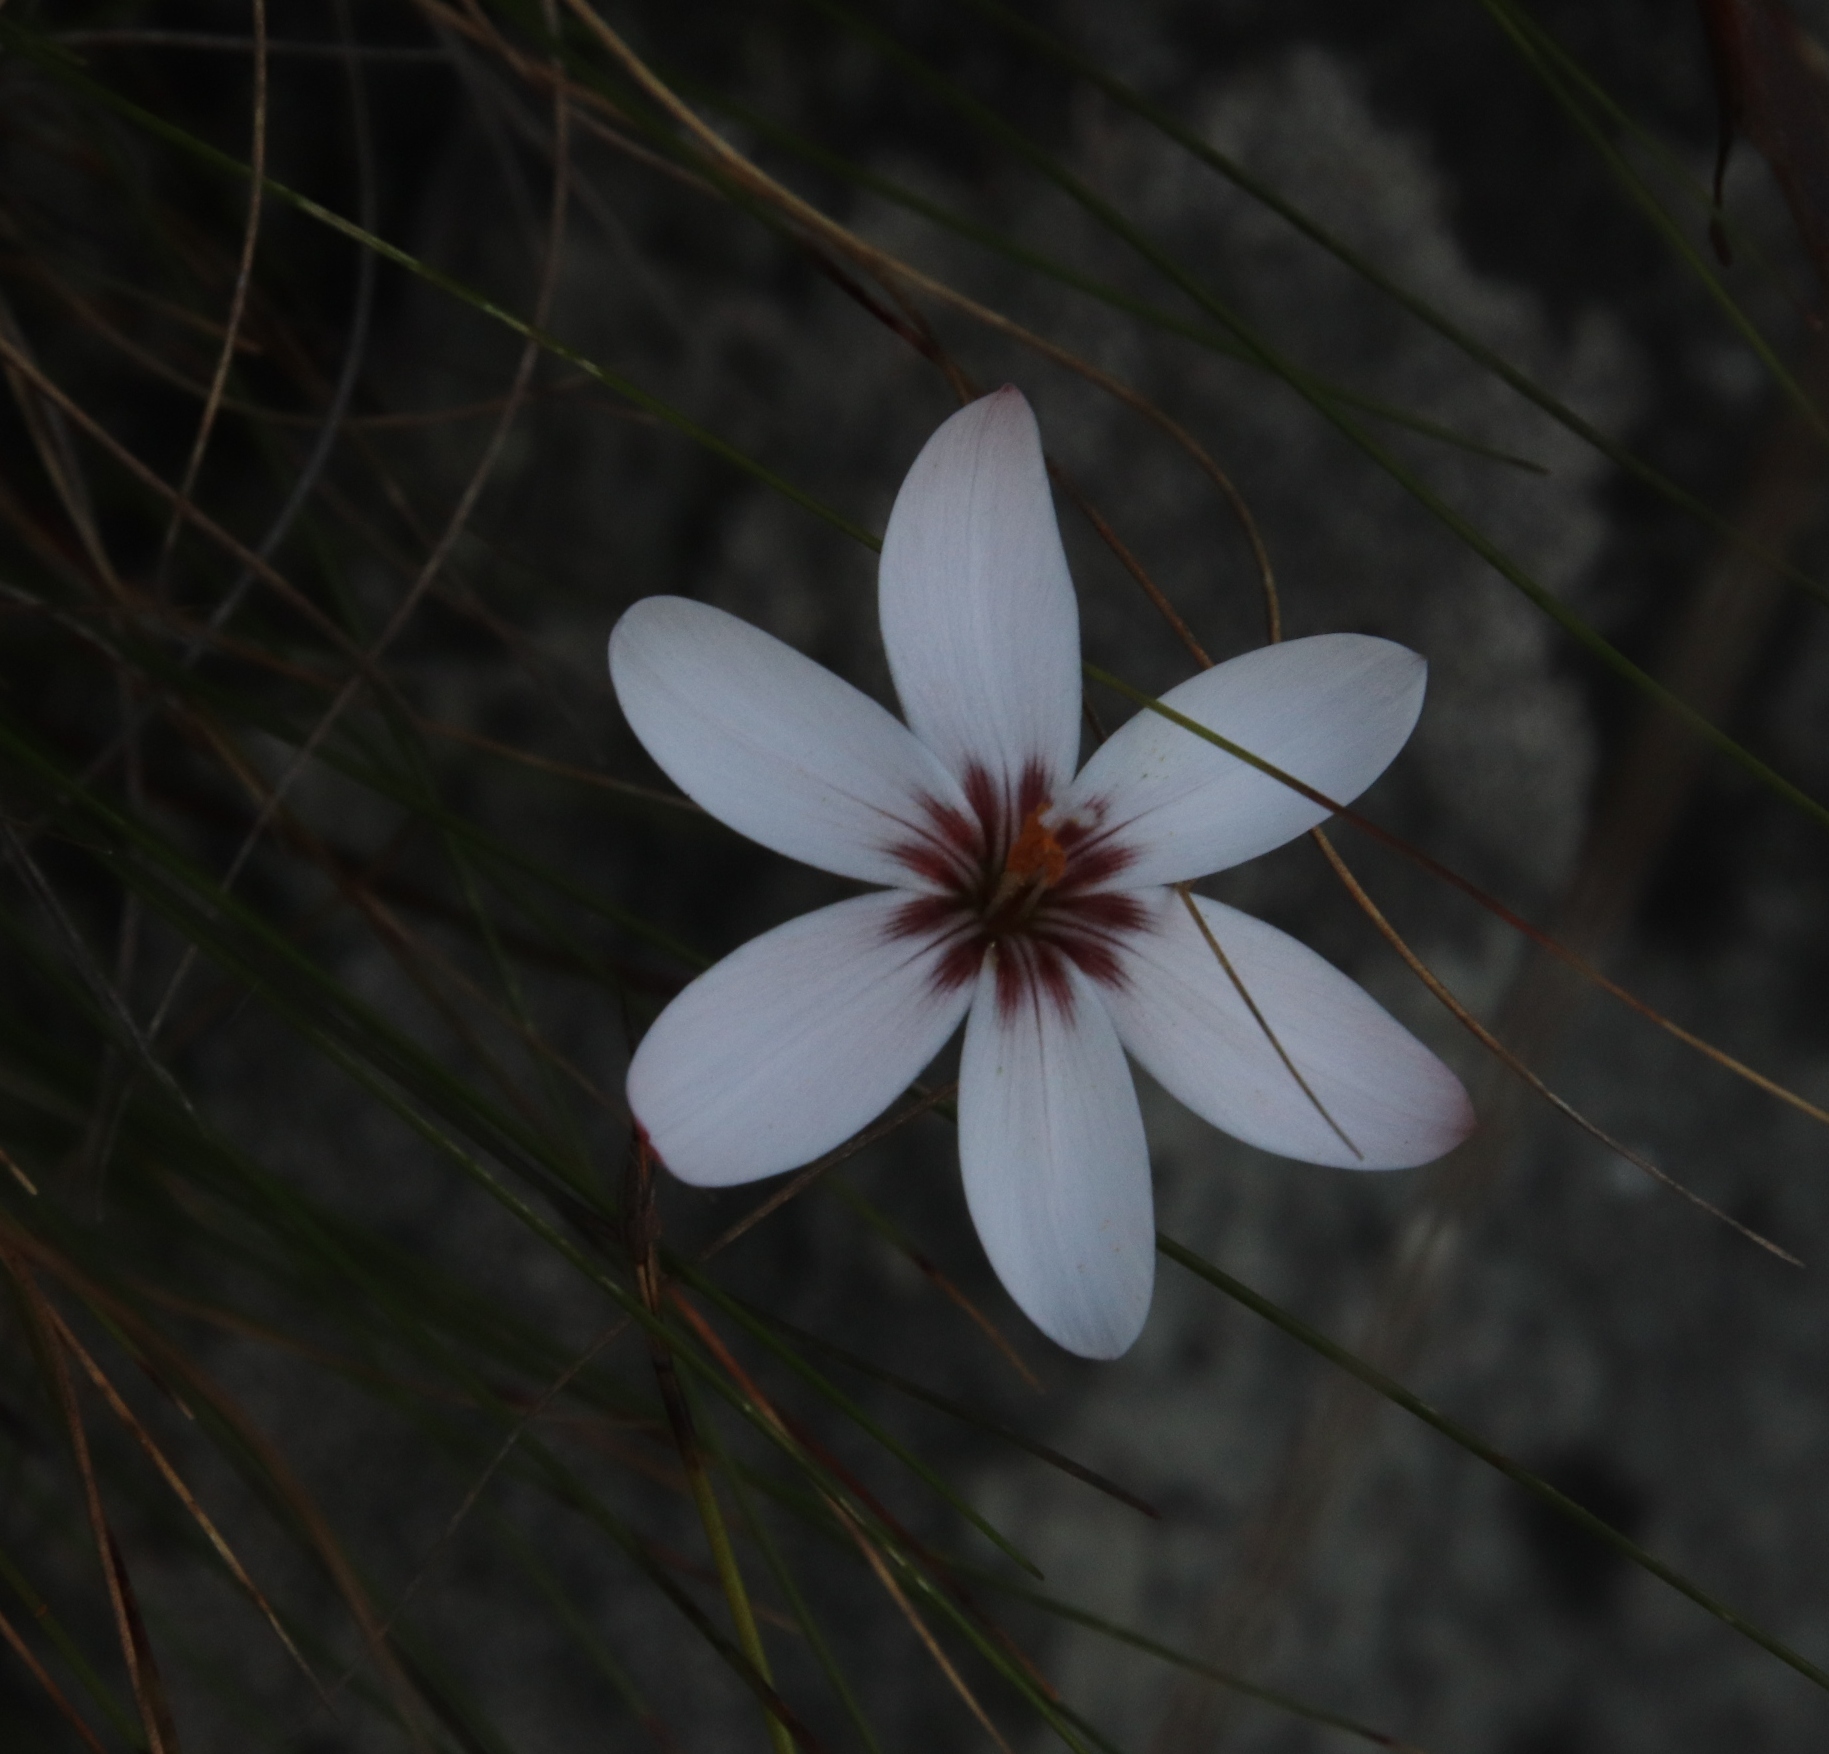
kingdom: Plantae
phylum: Tracheophyta
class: Liliopsida
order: Asparagales
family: Iridaceae
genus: Geissorhiza
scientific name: Geissorhiza ovata
